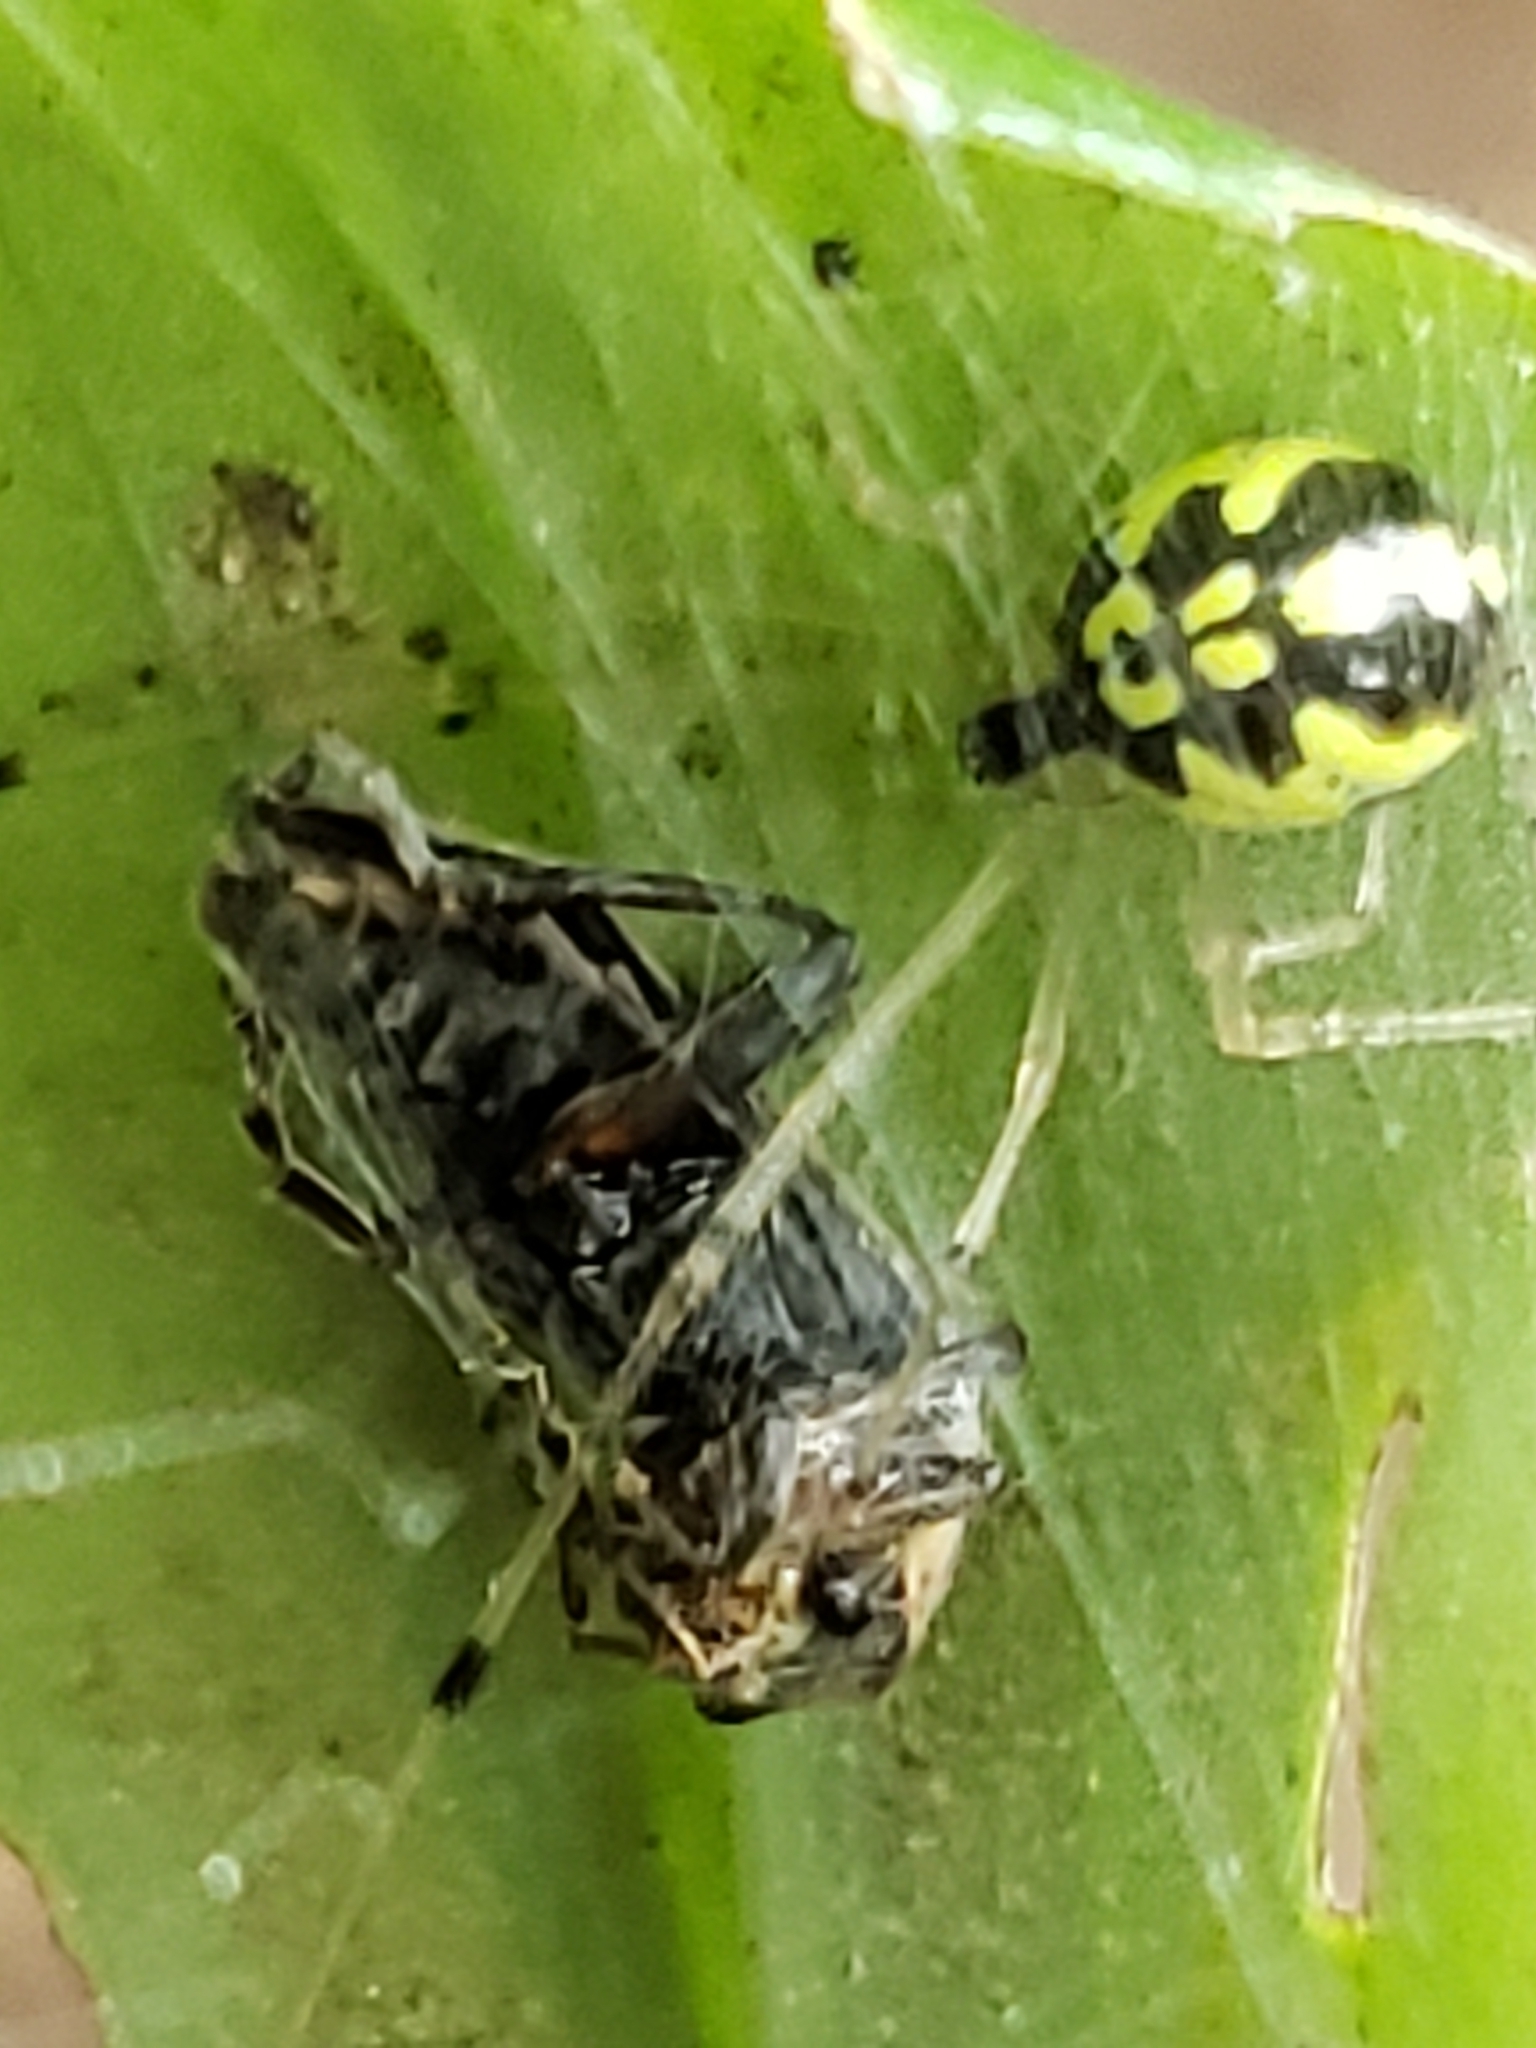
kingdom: Animalia
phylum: Arthropoda
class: Arachnida
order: Araneae
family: Theridiidae
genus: Phylloneta
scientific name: Phylloneta pictipes
